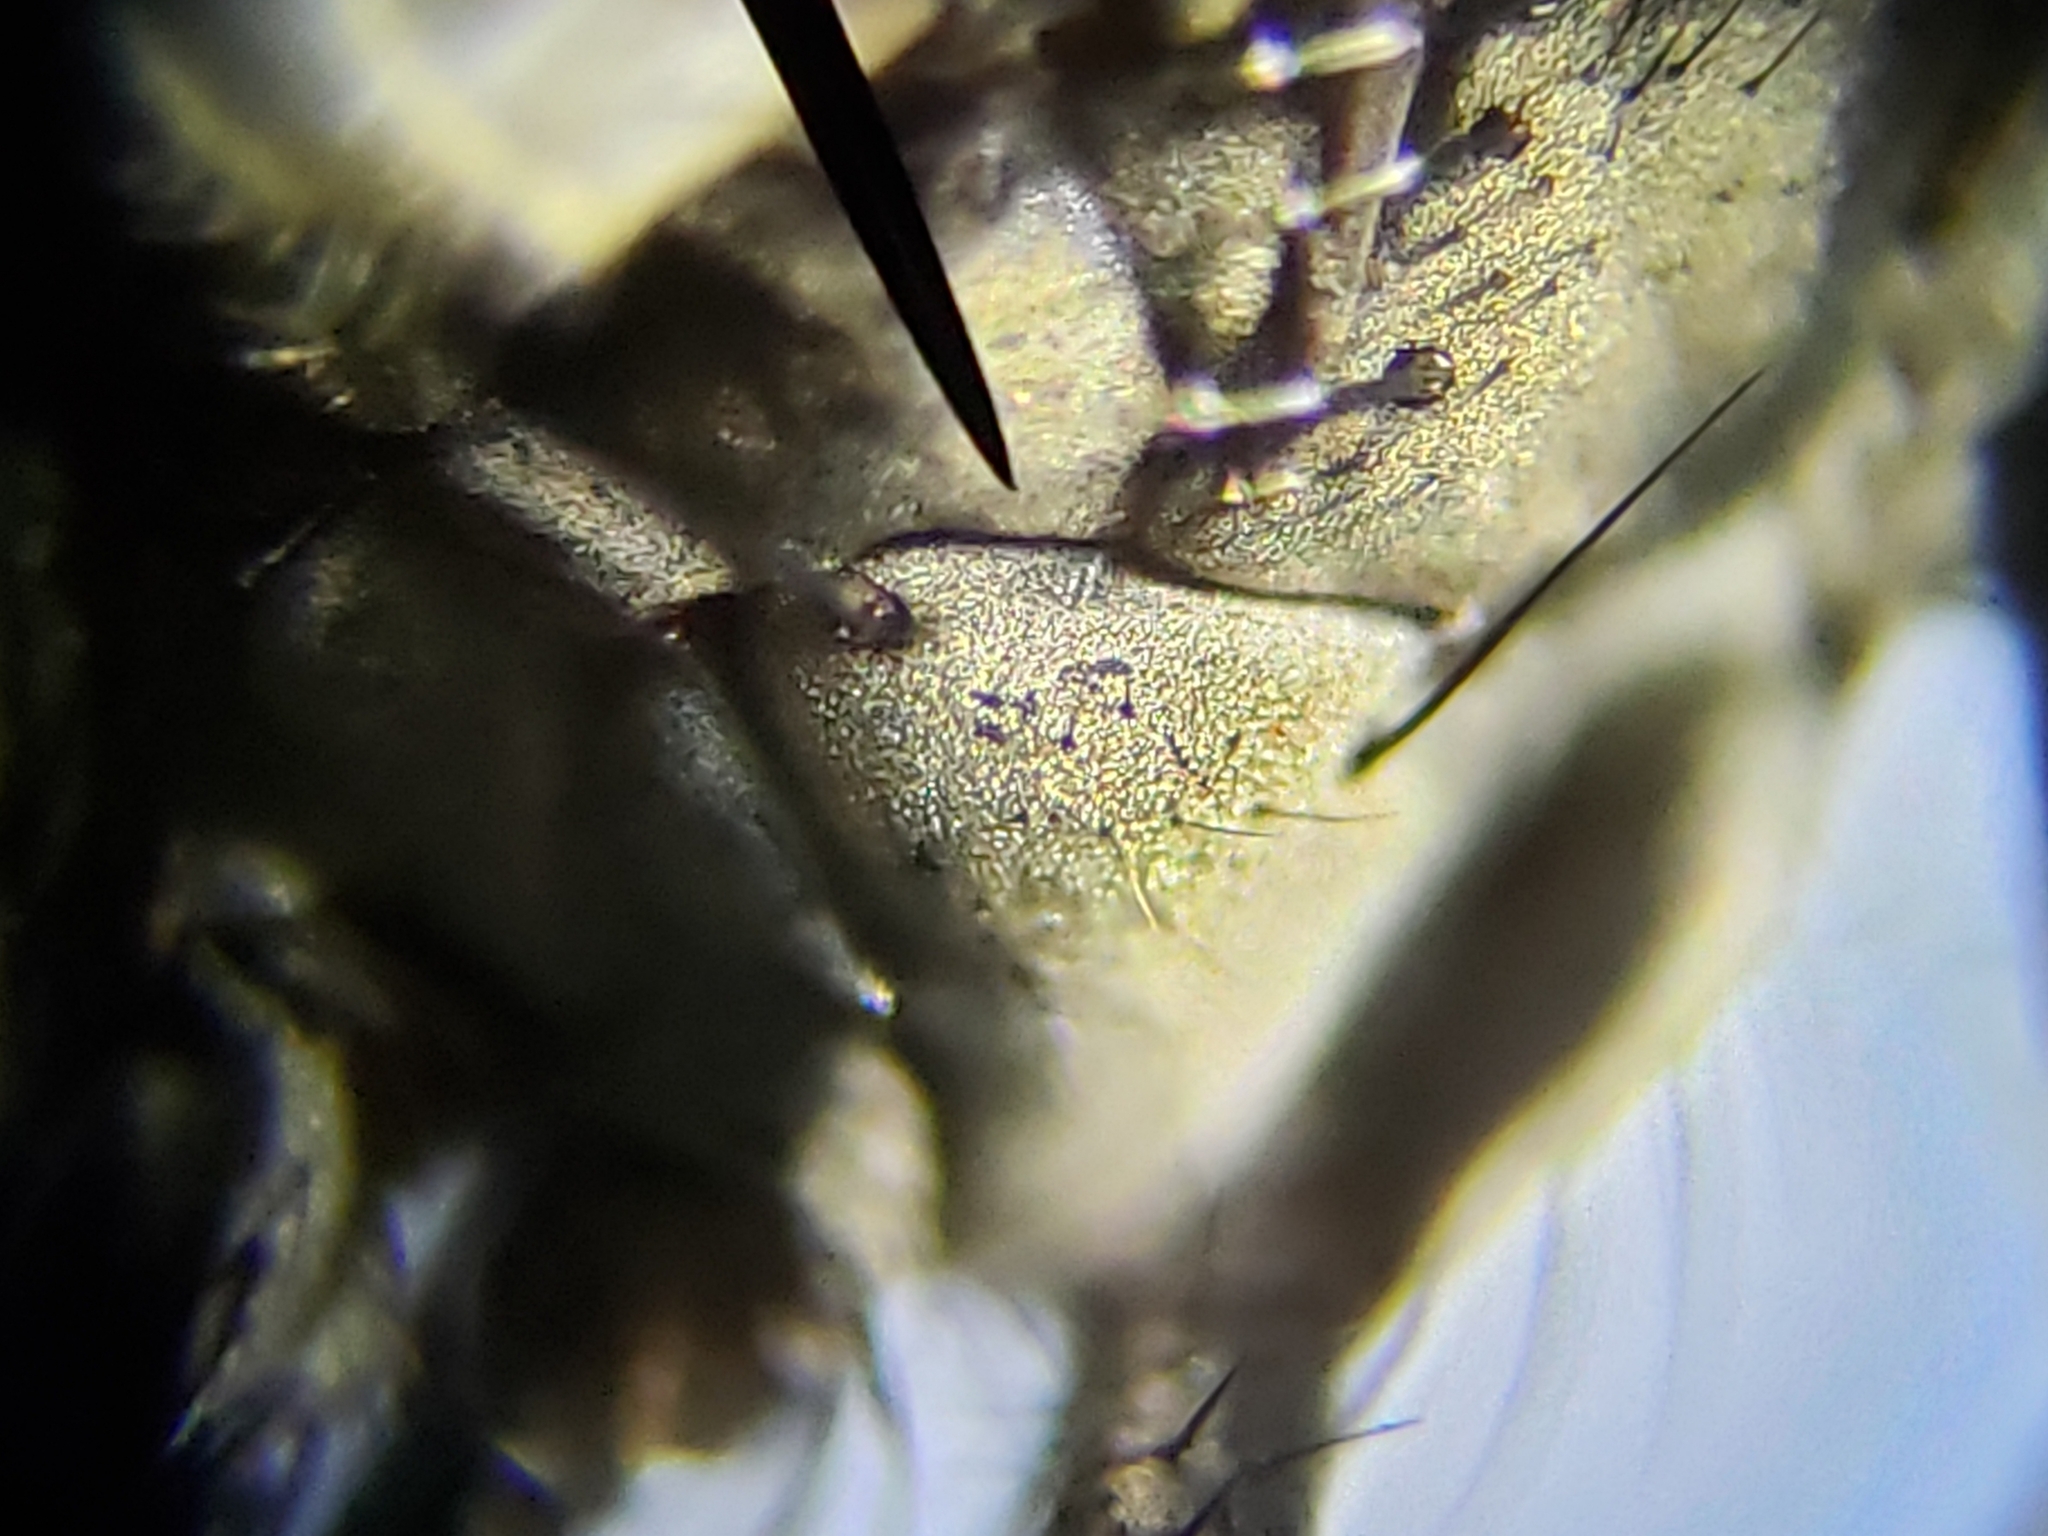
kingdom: Animalia
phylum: Arthropoda
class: Insecta
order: Diptera
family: Muscidae
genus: Limnophora
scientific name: Limnophora narona
